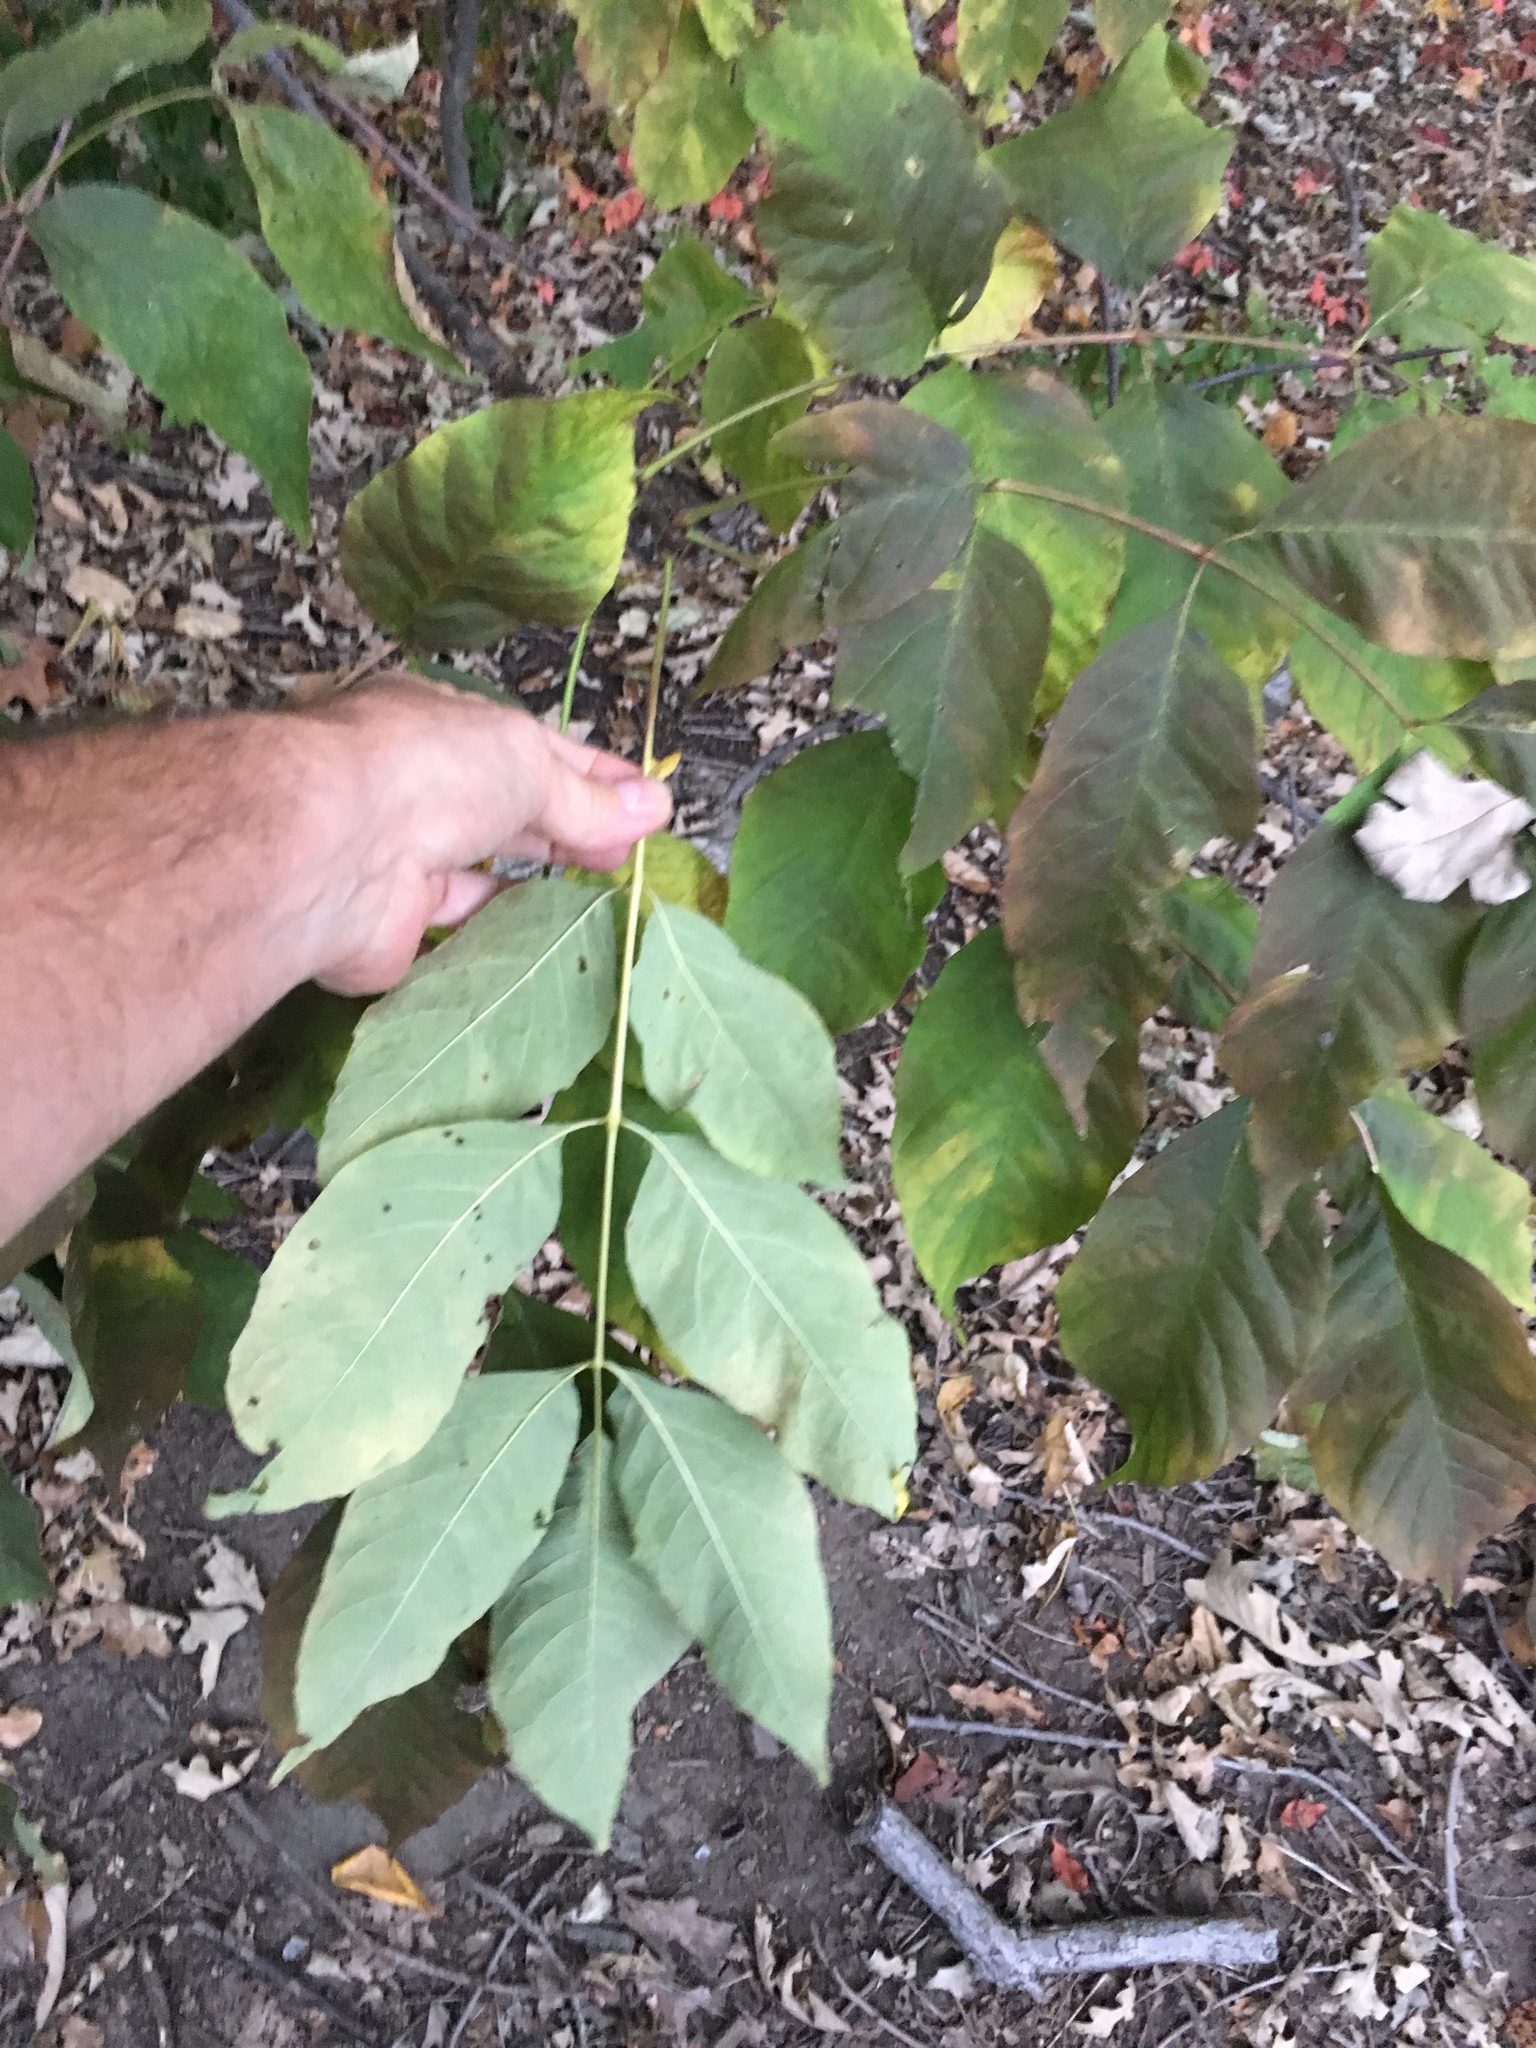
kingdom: Plantae
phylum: Tracheophyta
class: Magnoliopsida
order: Lamiales
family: Oleaceae
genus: Fraxinus
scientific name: Fraxinus americana
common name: White ash
